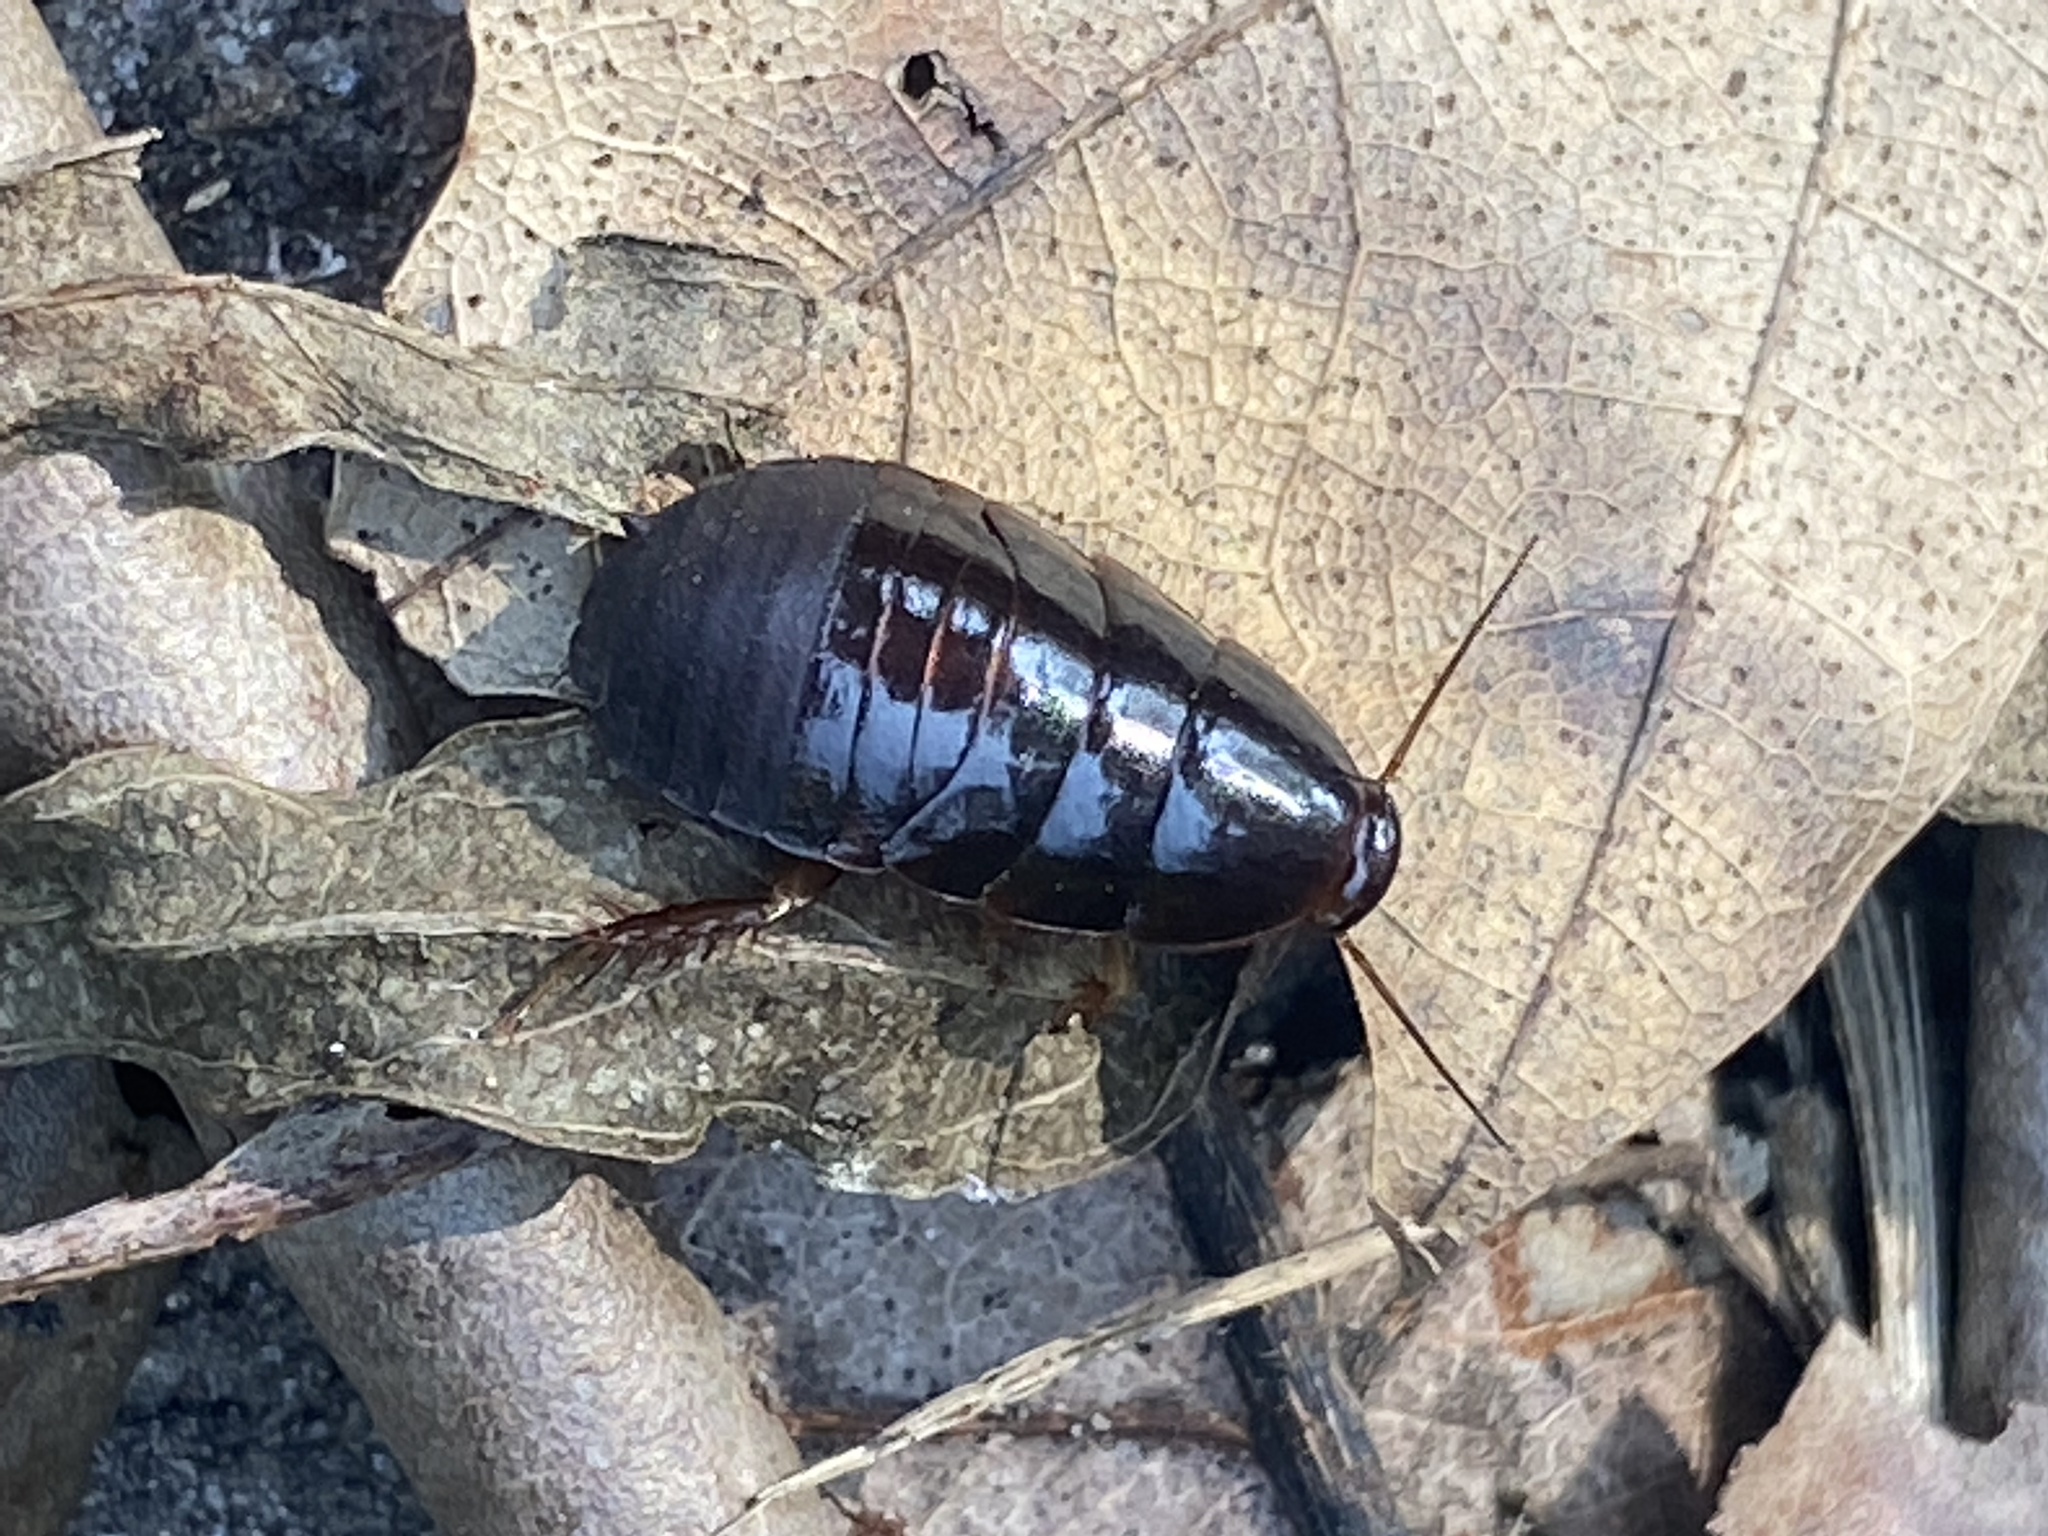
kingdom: Animalia
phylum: Arthropoda
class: Insecta
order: Blattodea
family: Blaberidae
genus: Pycnoscelus
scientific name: Pycnoscelus surinamensis
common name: Surinam cockroach
